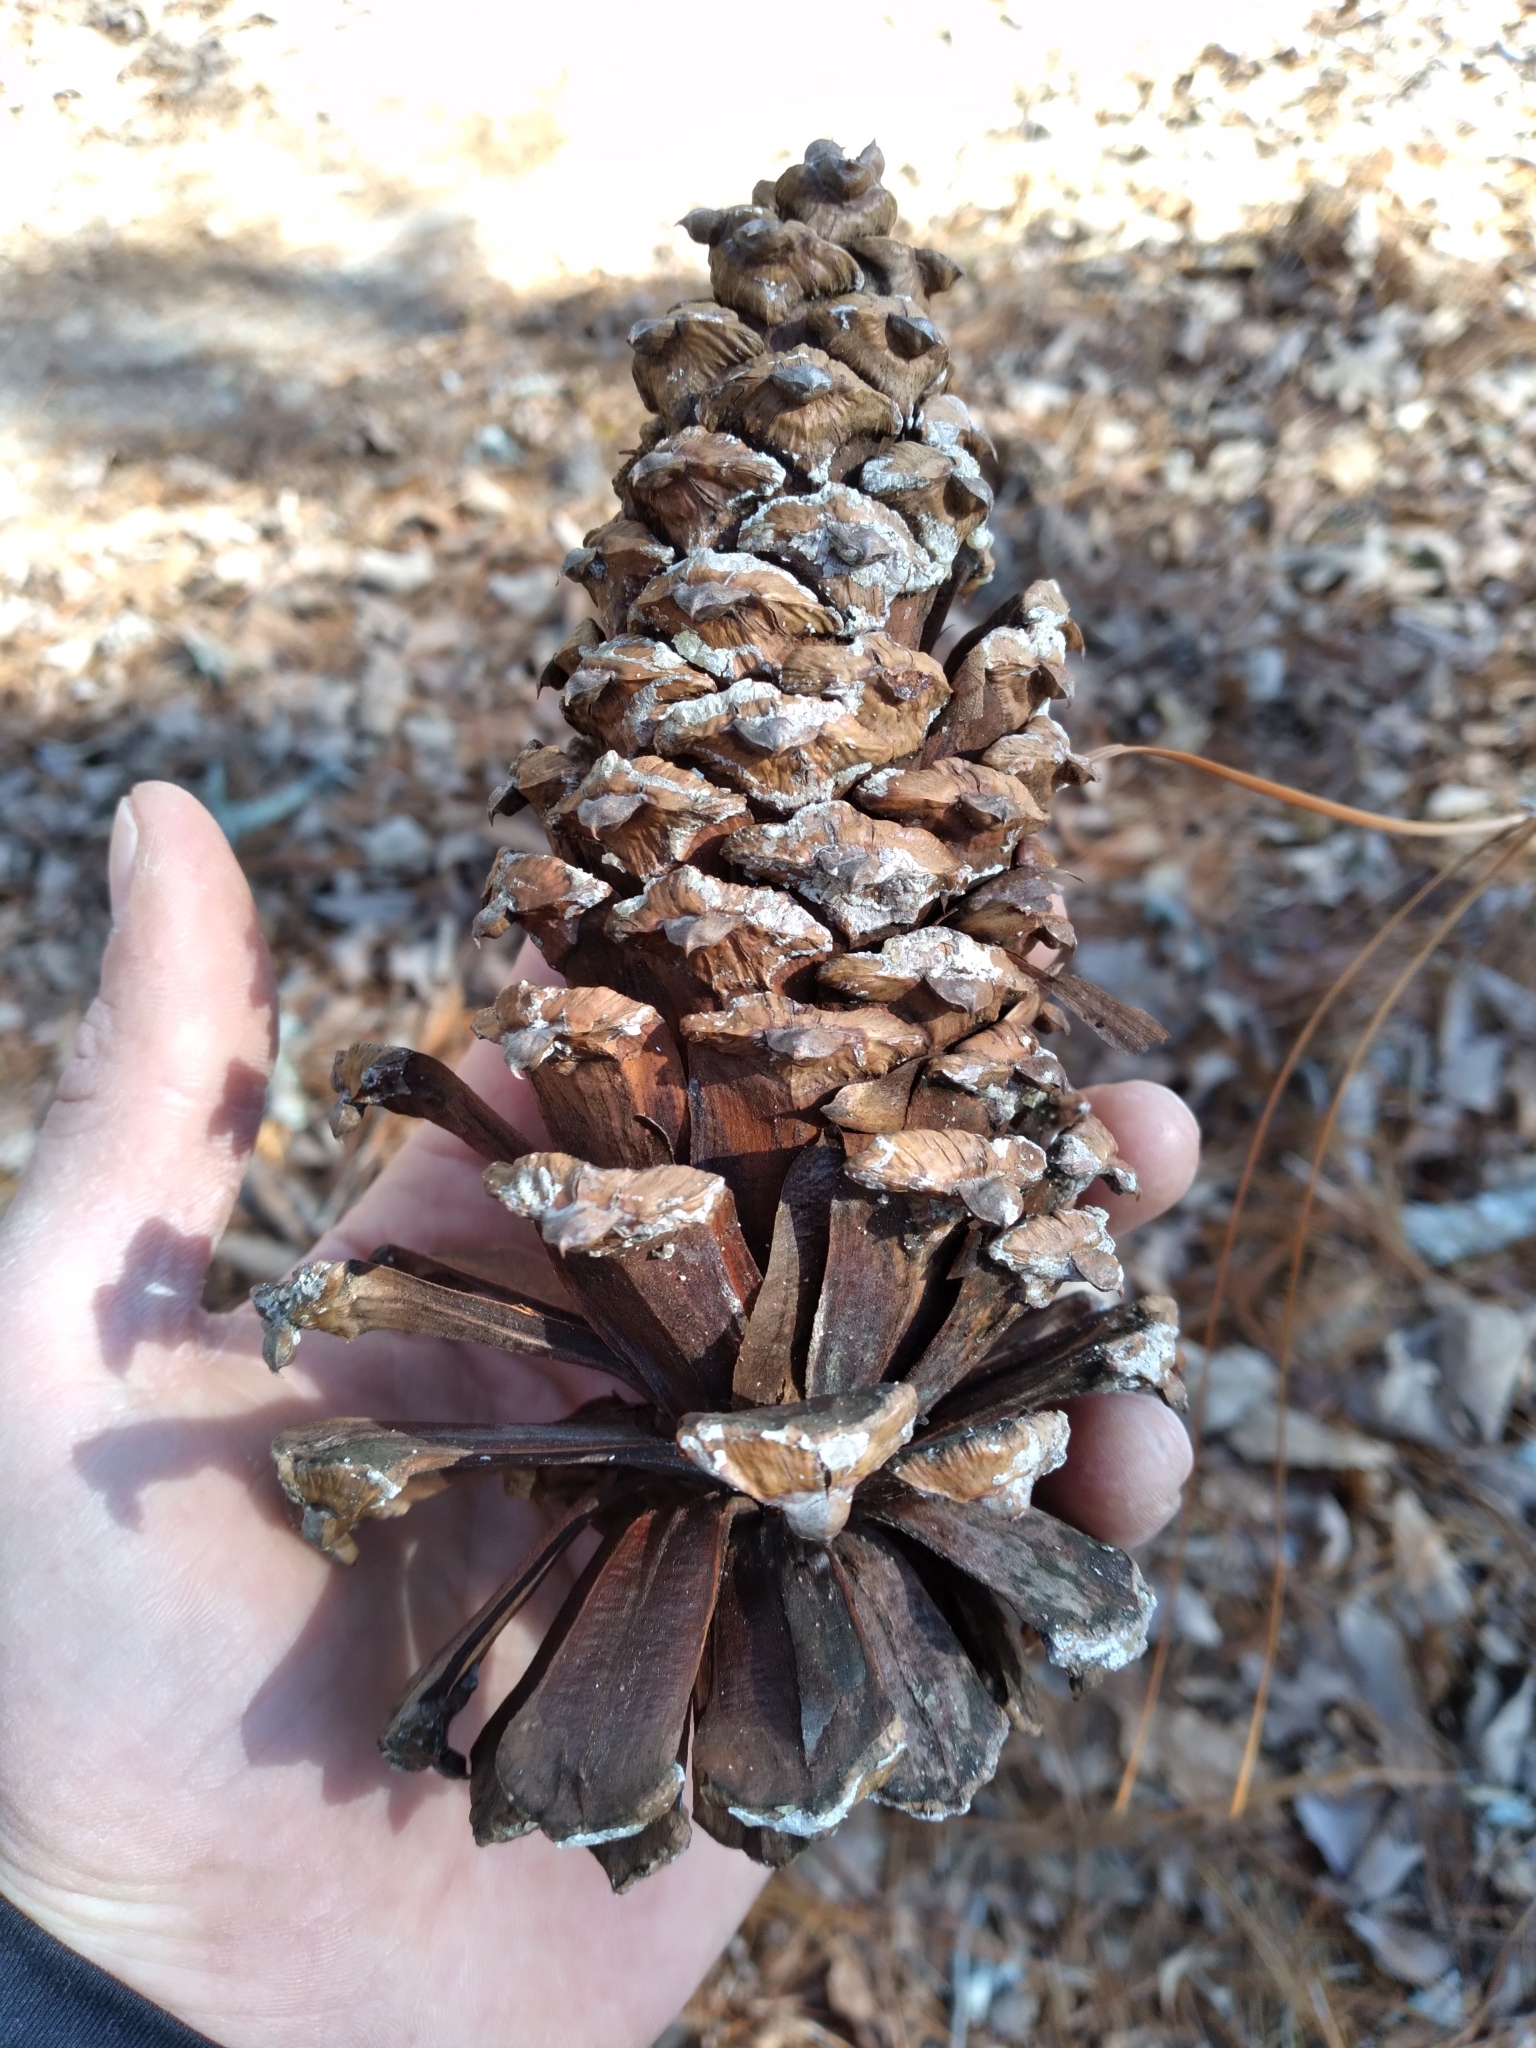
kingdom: Plantae
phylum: Tracheophyta
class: Pinopsida
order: Pinales
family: Pinaceae
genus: Pinus
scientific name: Pinus palustris
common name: Longleaf pine
